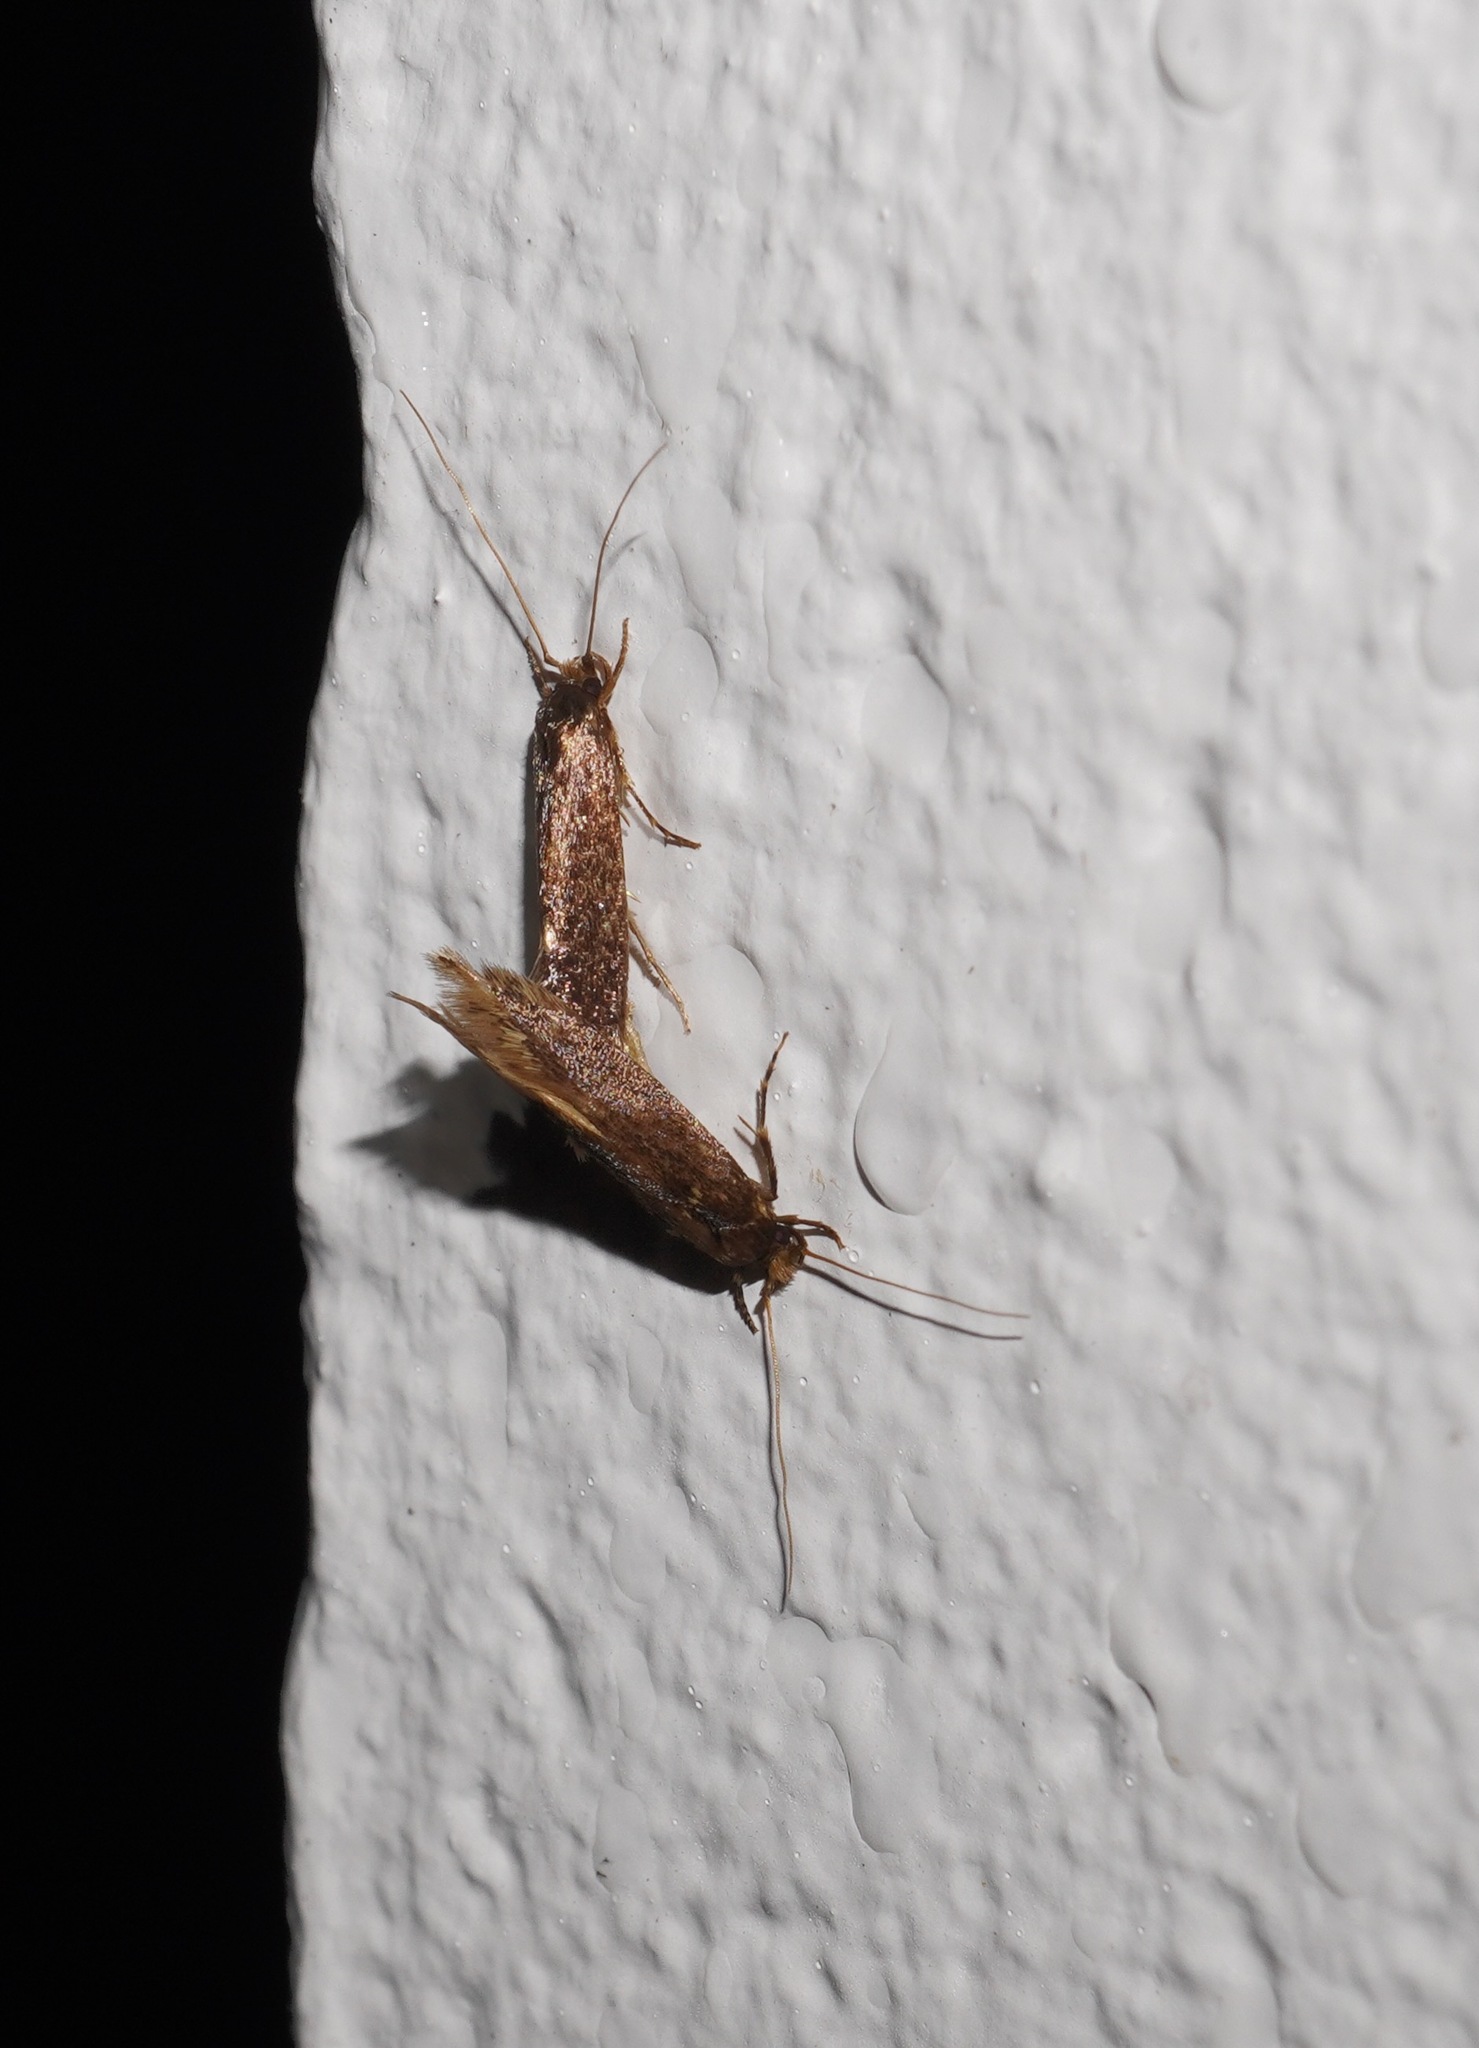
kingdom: Animalia
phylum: Arthropoda
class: Insecta
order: Lepidoptera
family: Tineidae
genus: Opogona
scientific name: Opogona omoscopa
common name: Moth
